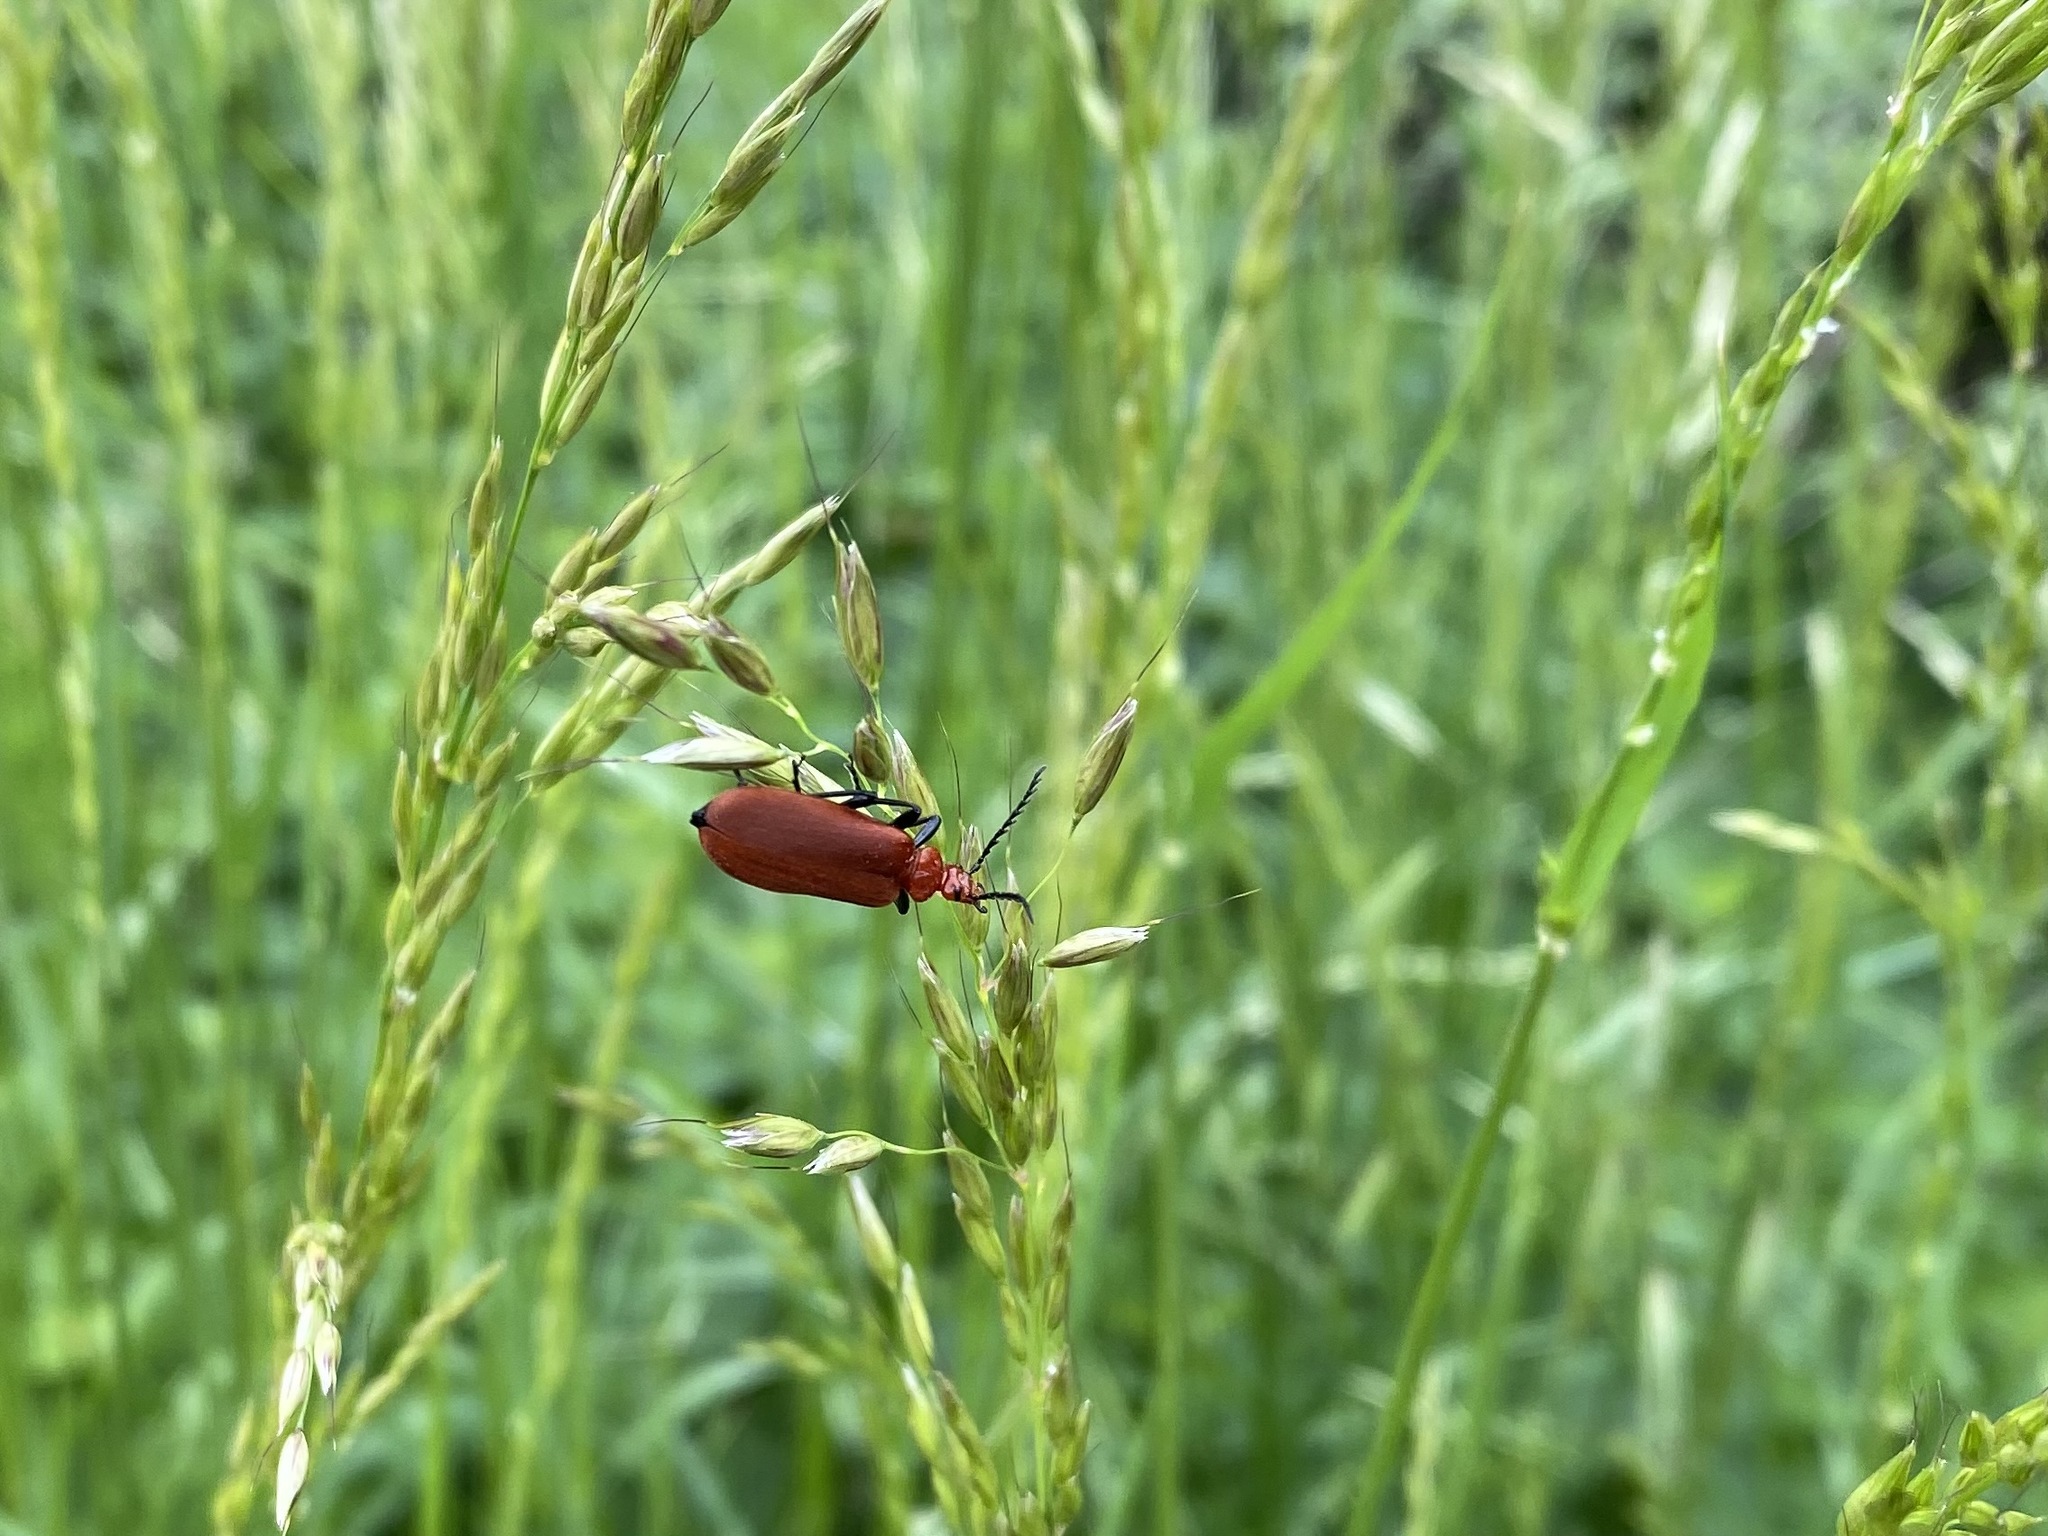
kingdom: Animalia
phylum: Arthropoda
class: Insecta
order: Coleoptera
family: Pyrochroidae
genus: Pyrochroa
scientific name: Pyrochroa serraticornis
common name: Red-headed cardinal beetle
